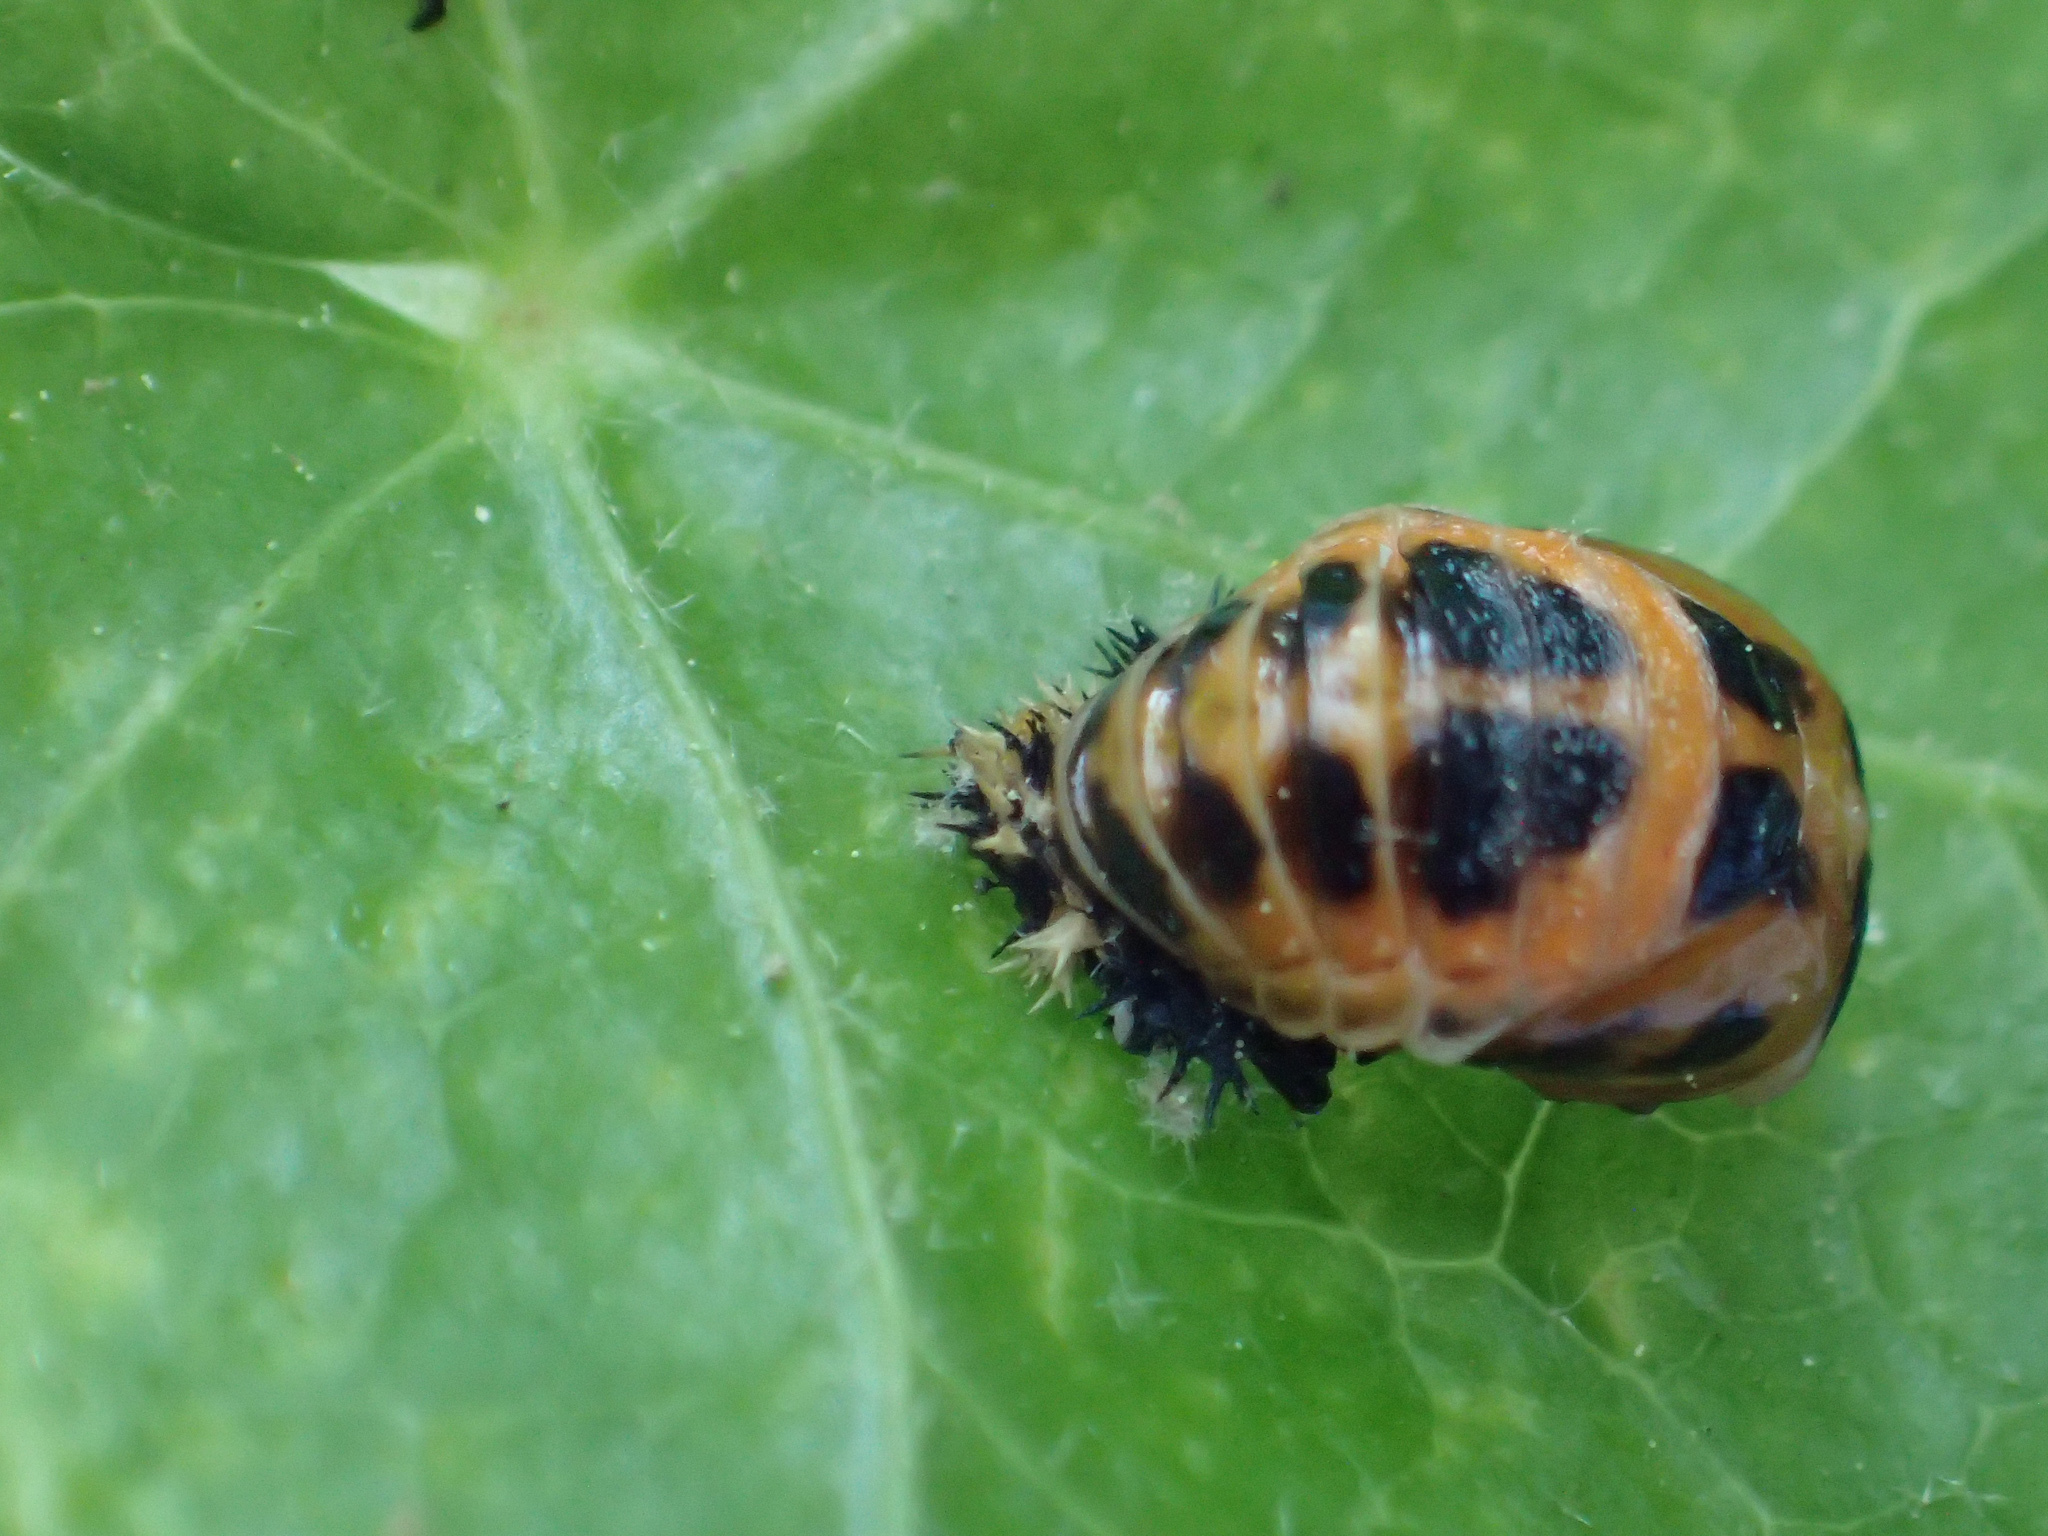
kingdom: Animalia
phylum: Arthropoda
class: Insecta
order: Coleoptera
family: Coccinellidae
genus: Harmonia
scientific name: Harmonia axyridis
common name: Harlequin ladybird
